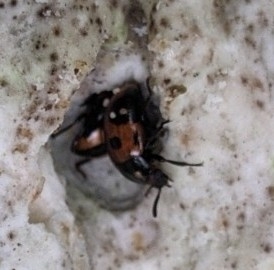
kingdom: Animalia
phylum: Arthropoda
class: Insecta
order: Coleoptera
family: Tenebrionidae
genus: Diaperis
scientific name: Diaperis maculata
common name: Darkling beetle
